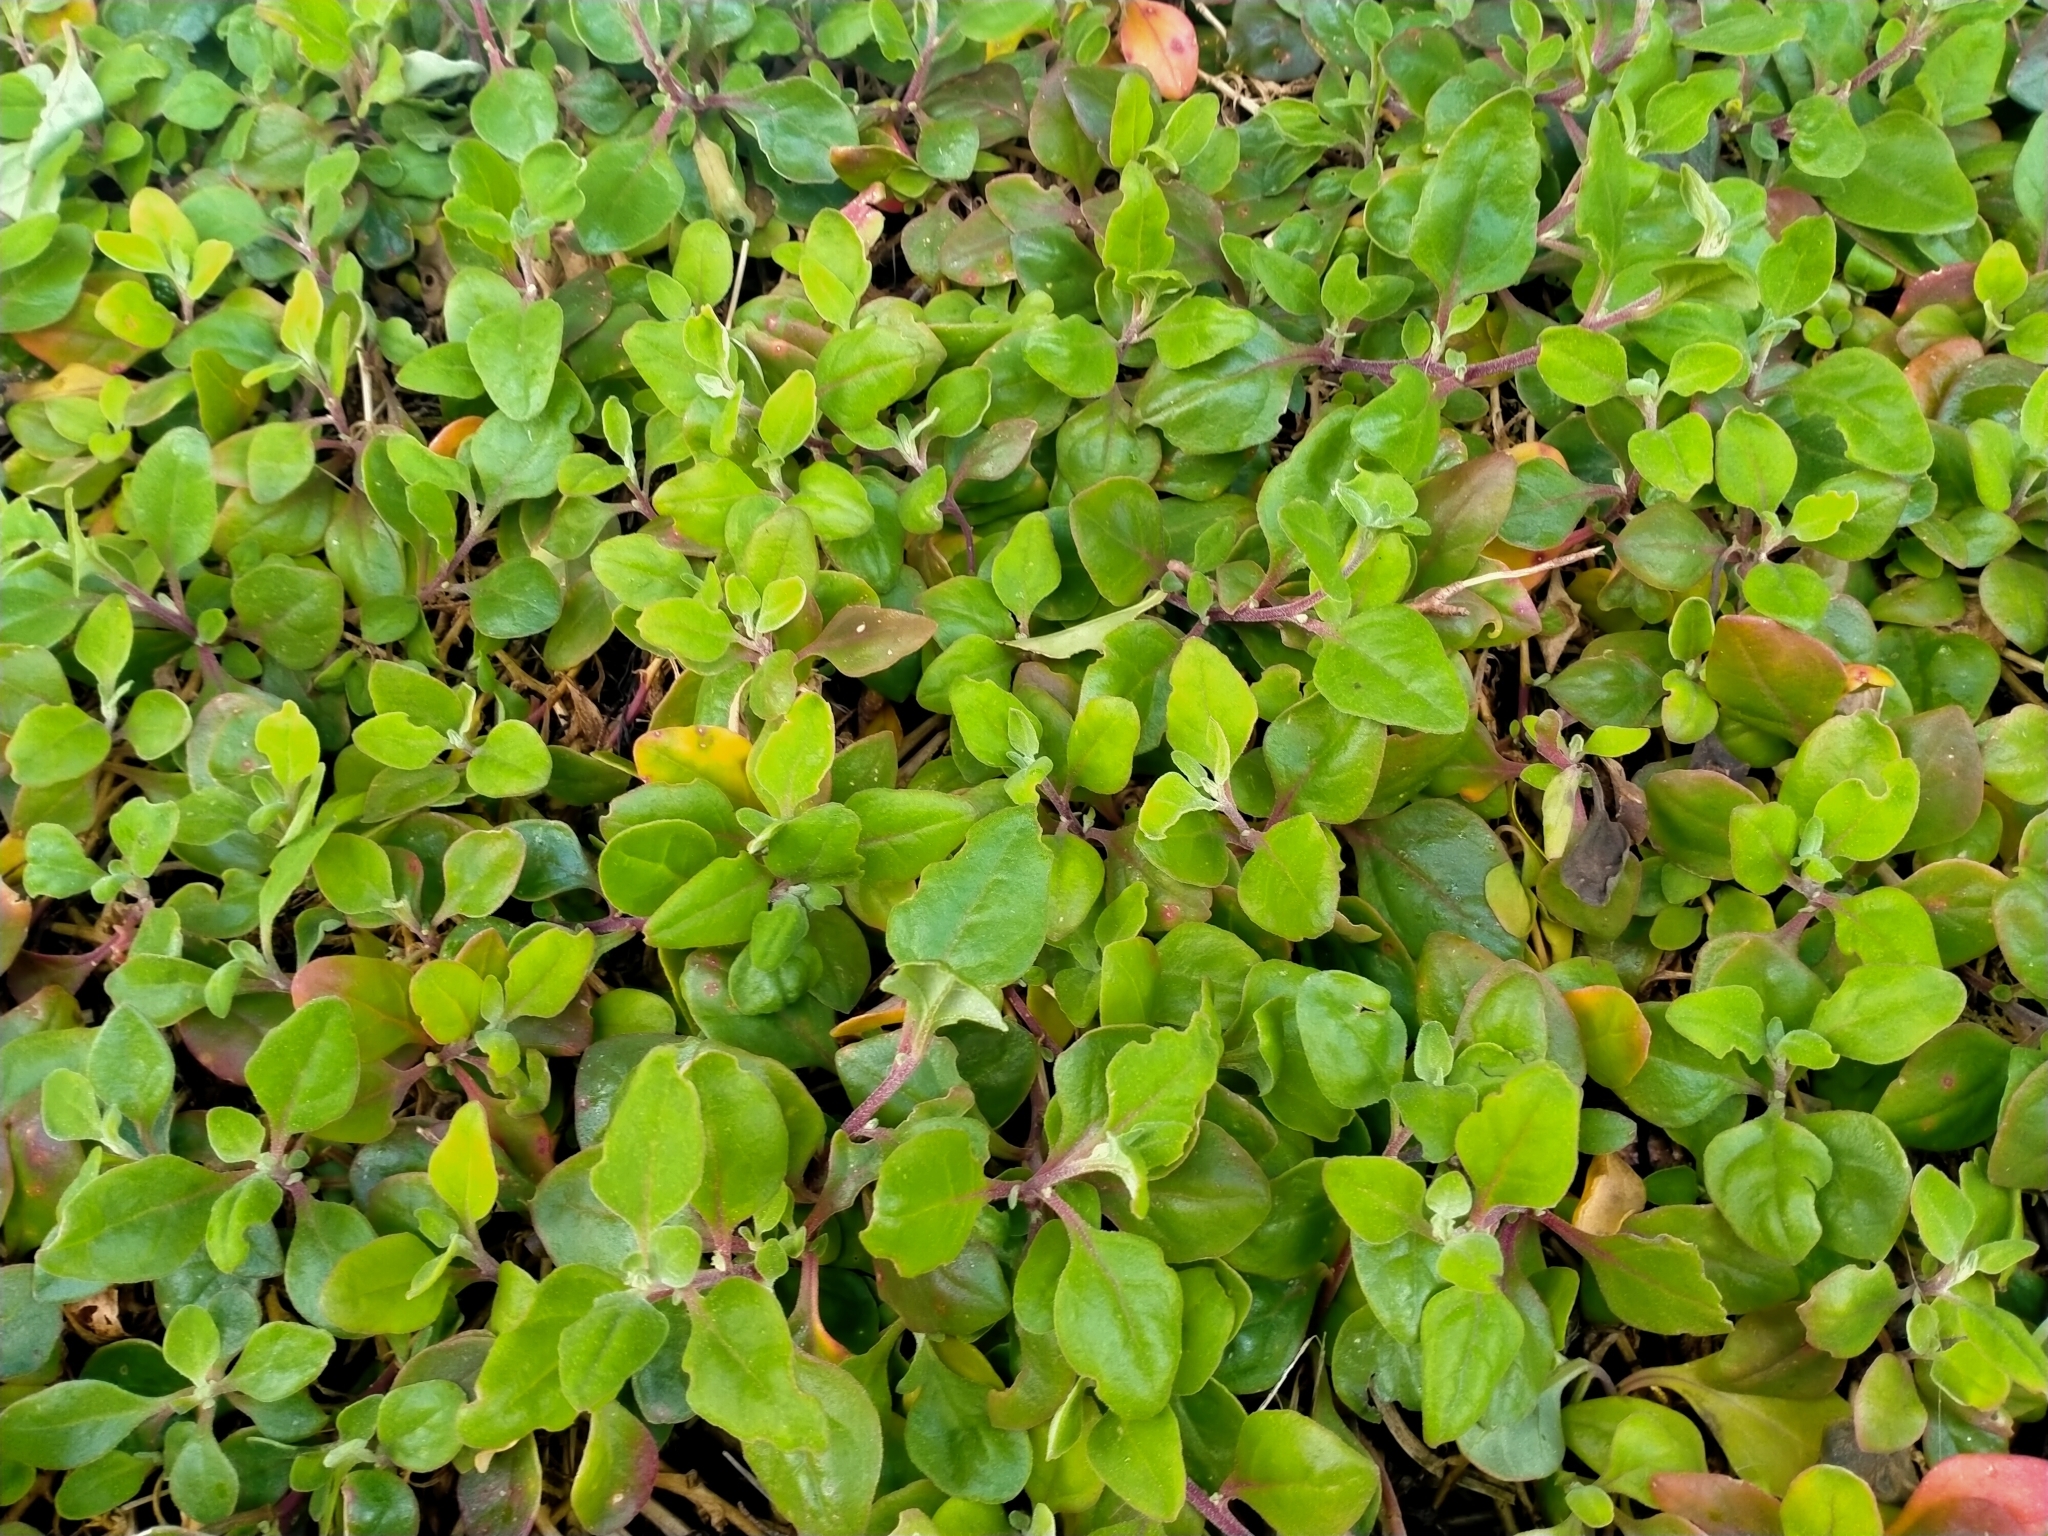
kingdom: Plantae
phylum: Tracheophyta
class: Magnoliopsida
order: Caryophyllales
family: Aizoaceae
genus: Tetragonia
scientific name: Tetragonia implexicoma
